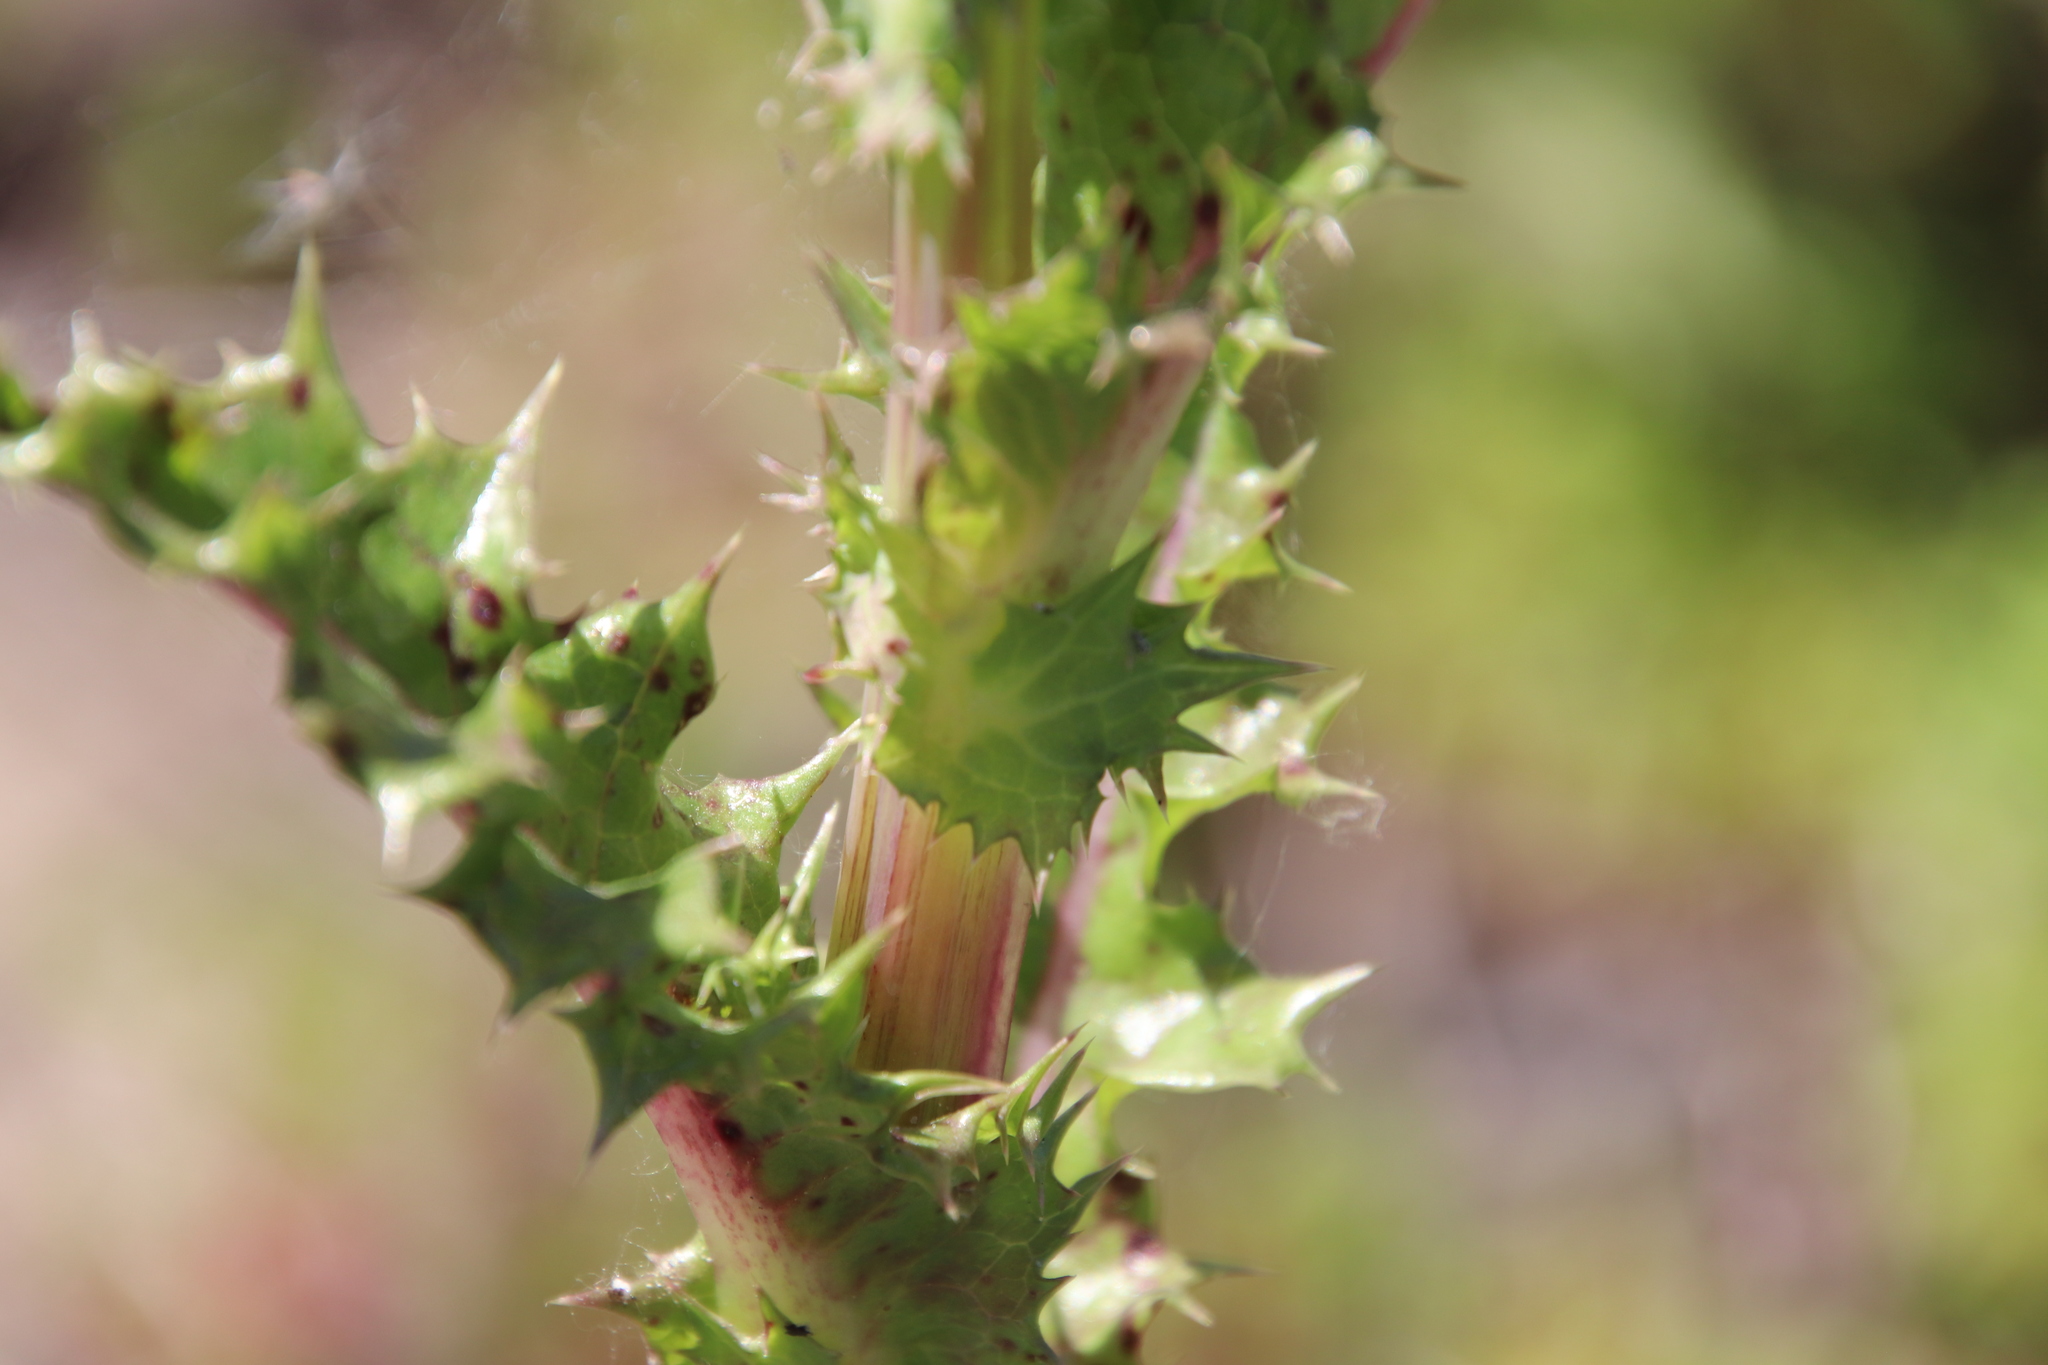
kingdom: Plantae
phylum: Tracheophyta
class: Magnoliopsida
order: Asterales
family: Asteraceae
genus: Sonchus
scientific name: Sonchus asper
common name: Prickly sow-thistle
